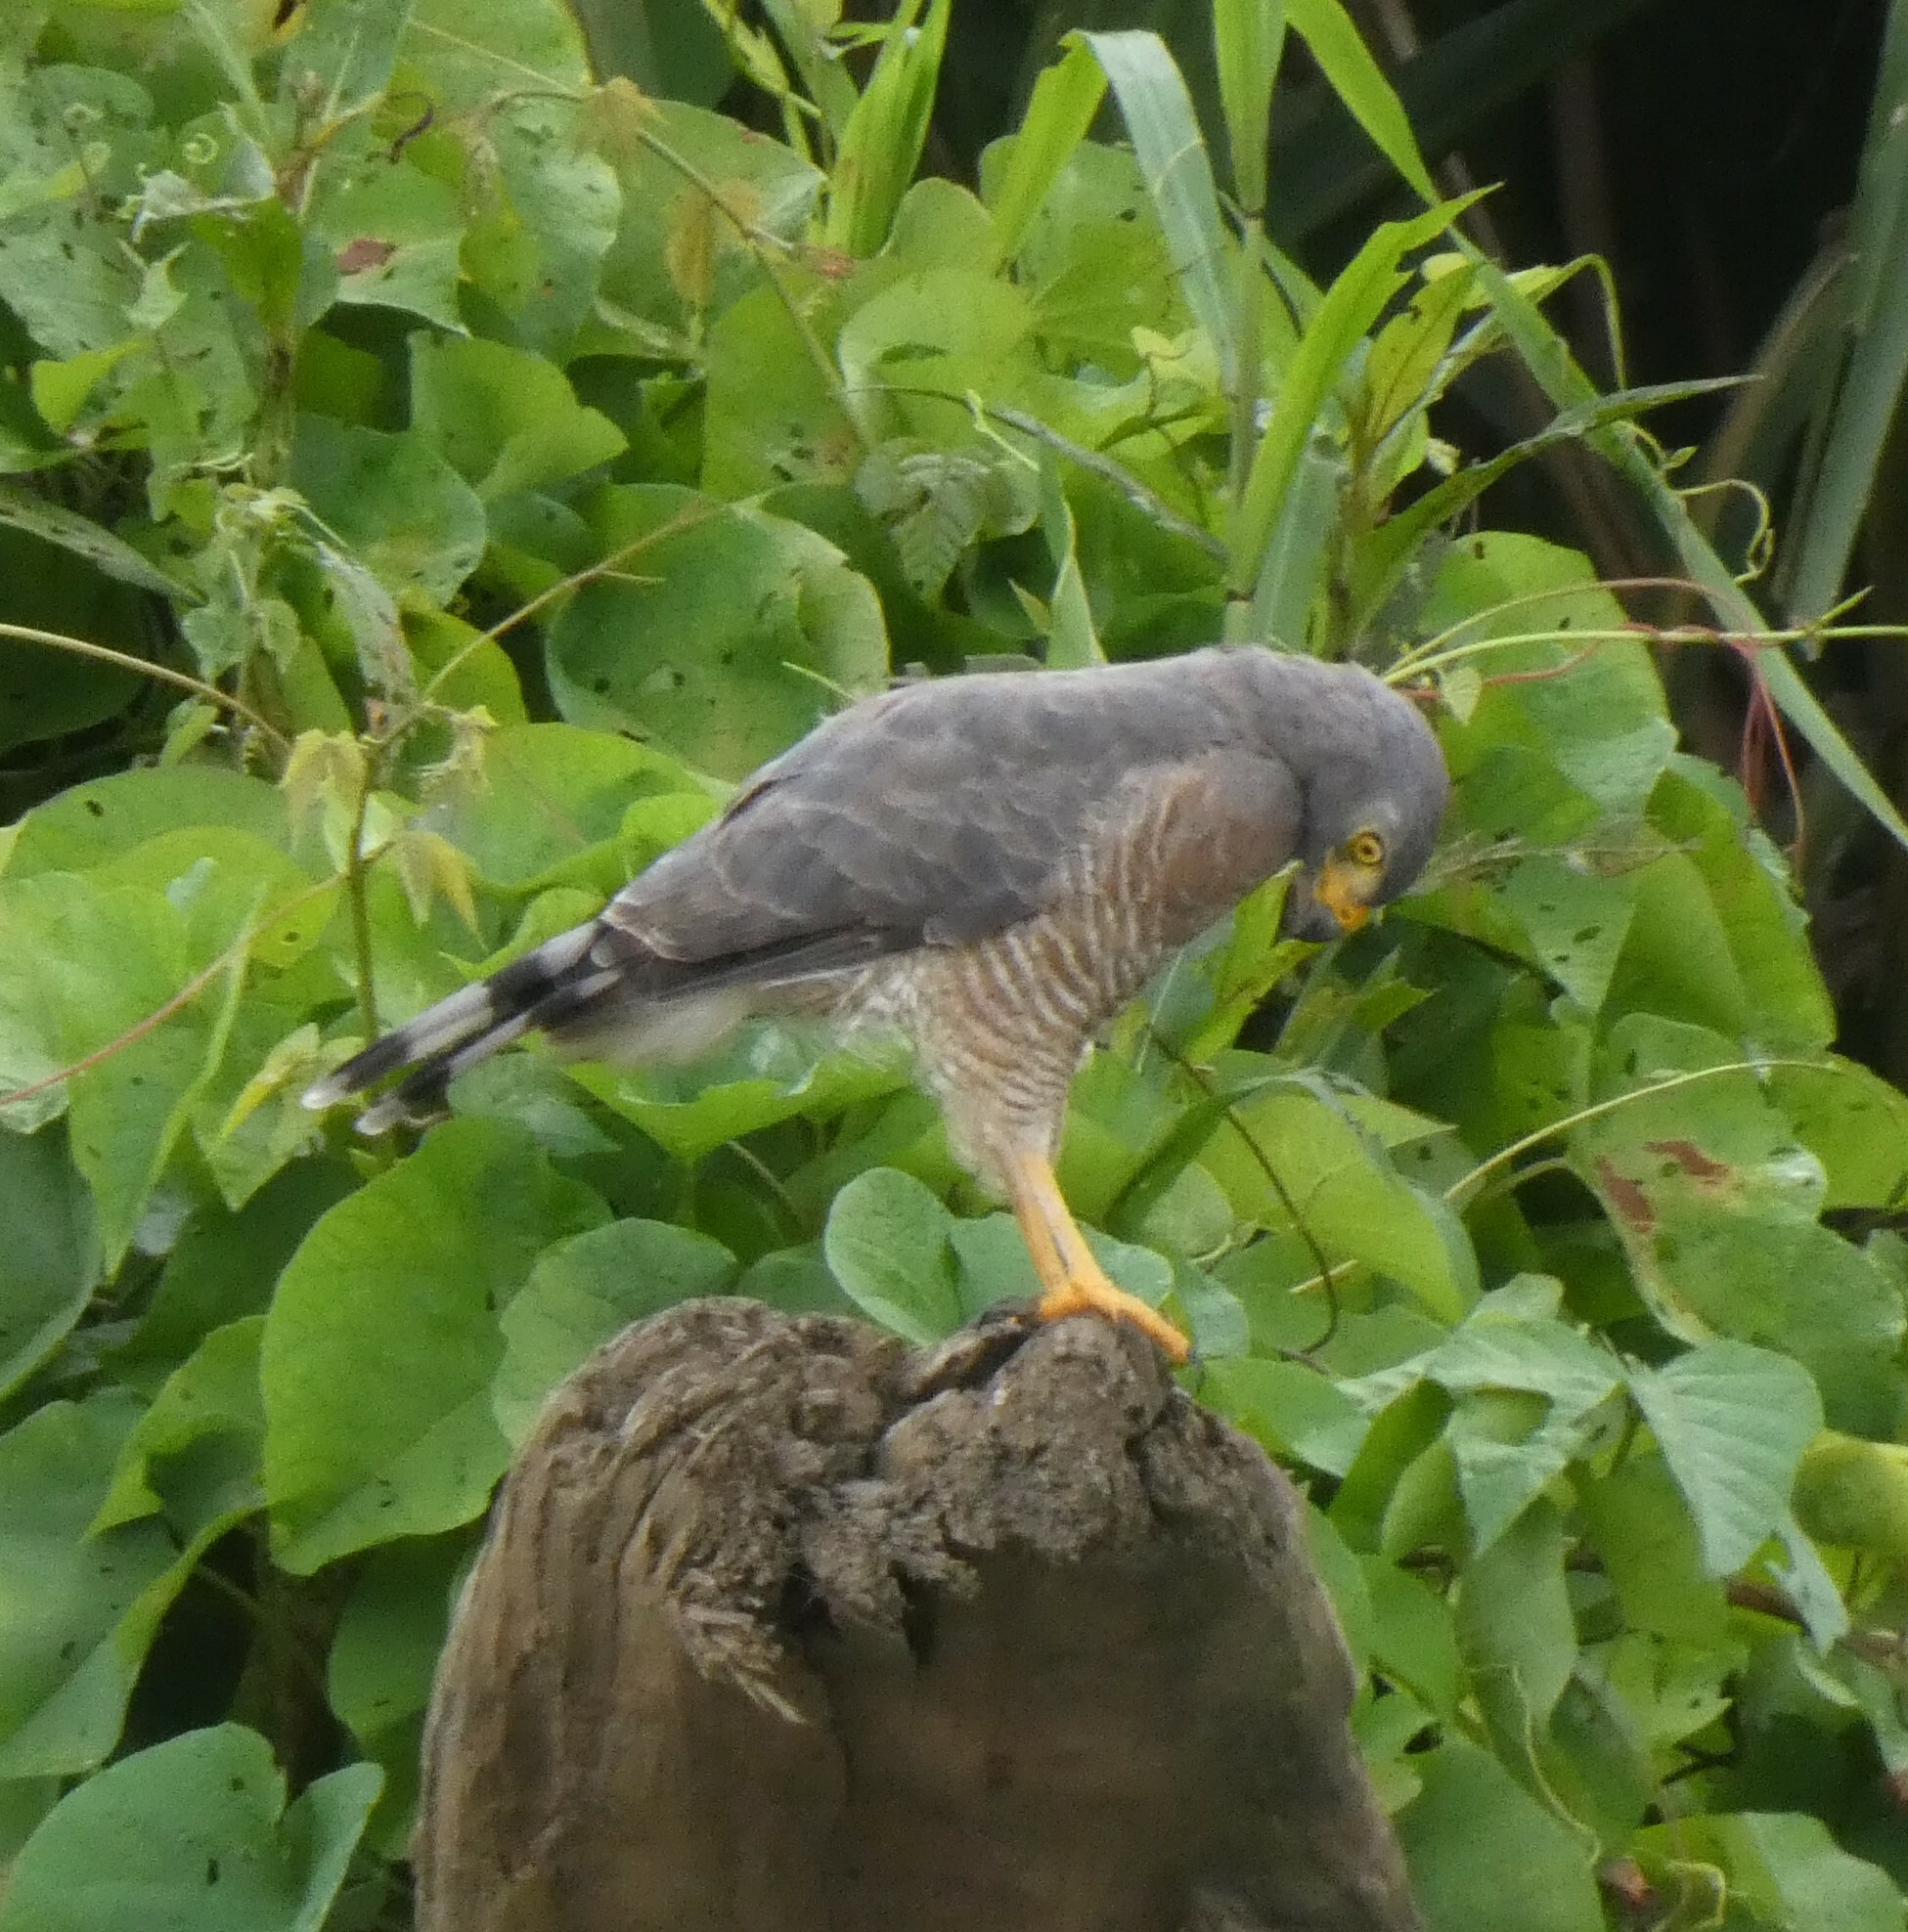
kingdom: Animalia
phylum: Chordata
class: Aves
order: Accipitriformes
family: Accipitridae
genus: Rupornis
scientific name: Rupornis magnirostris
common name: Roadside hawk
